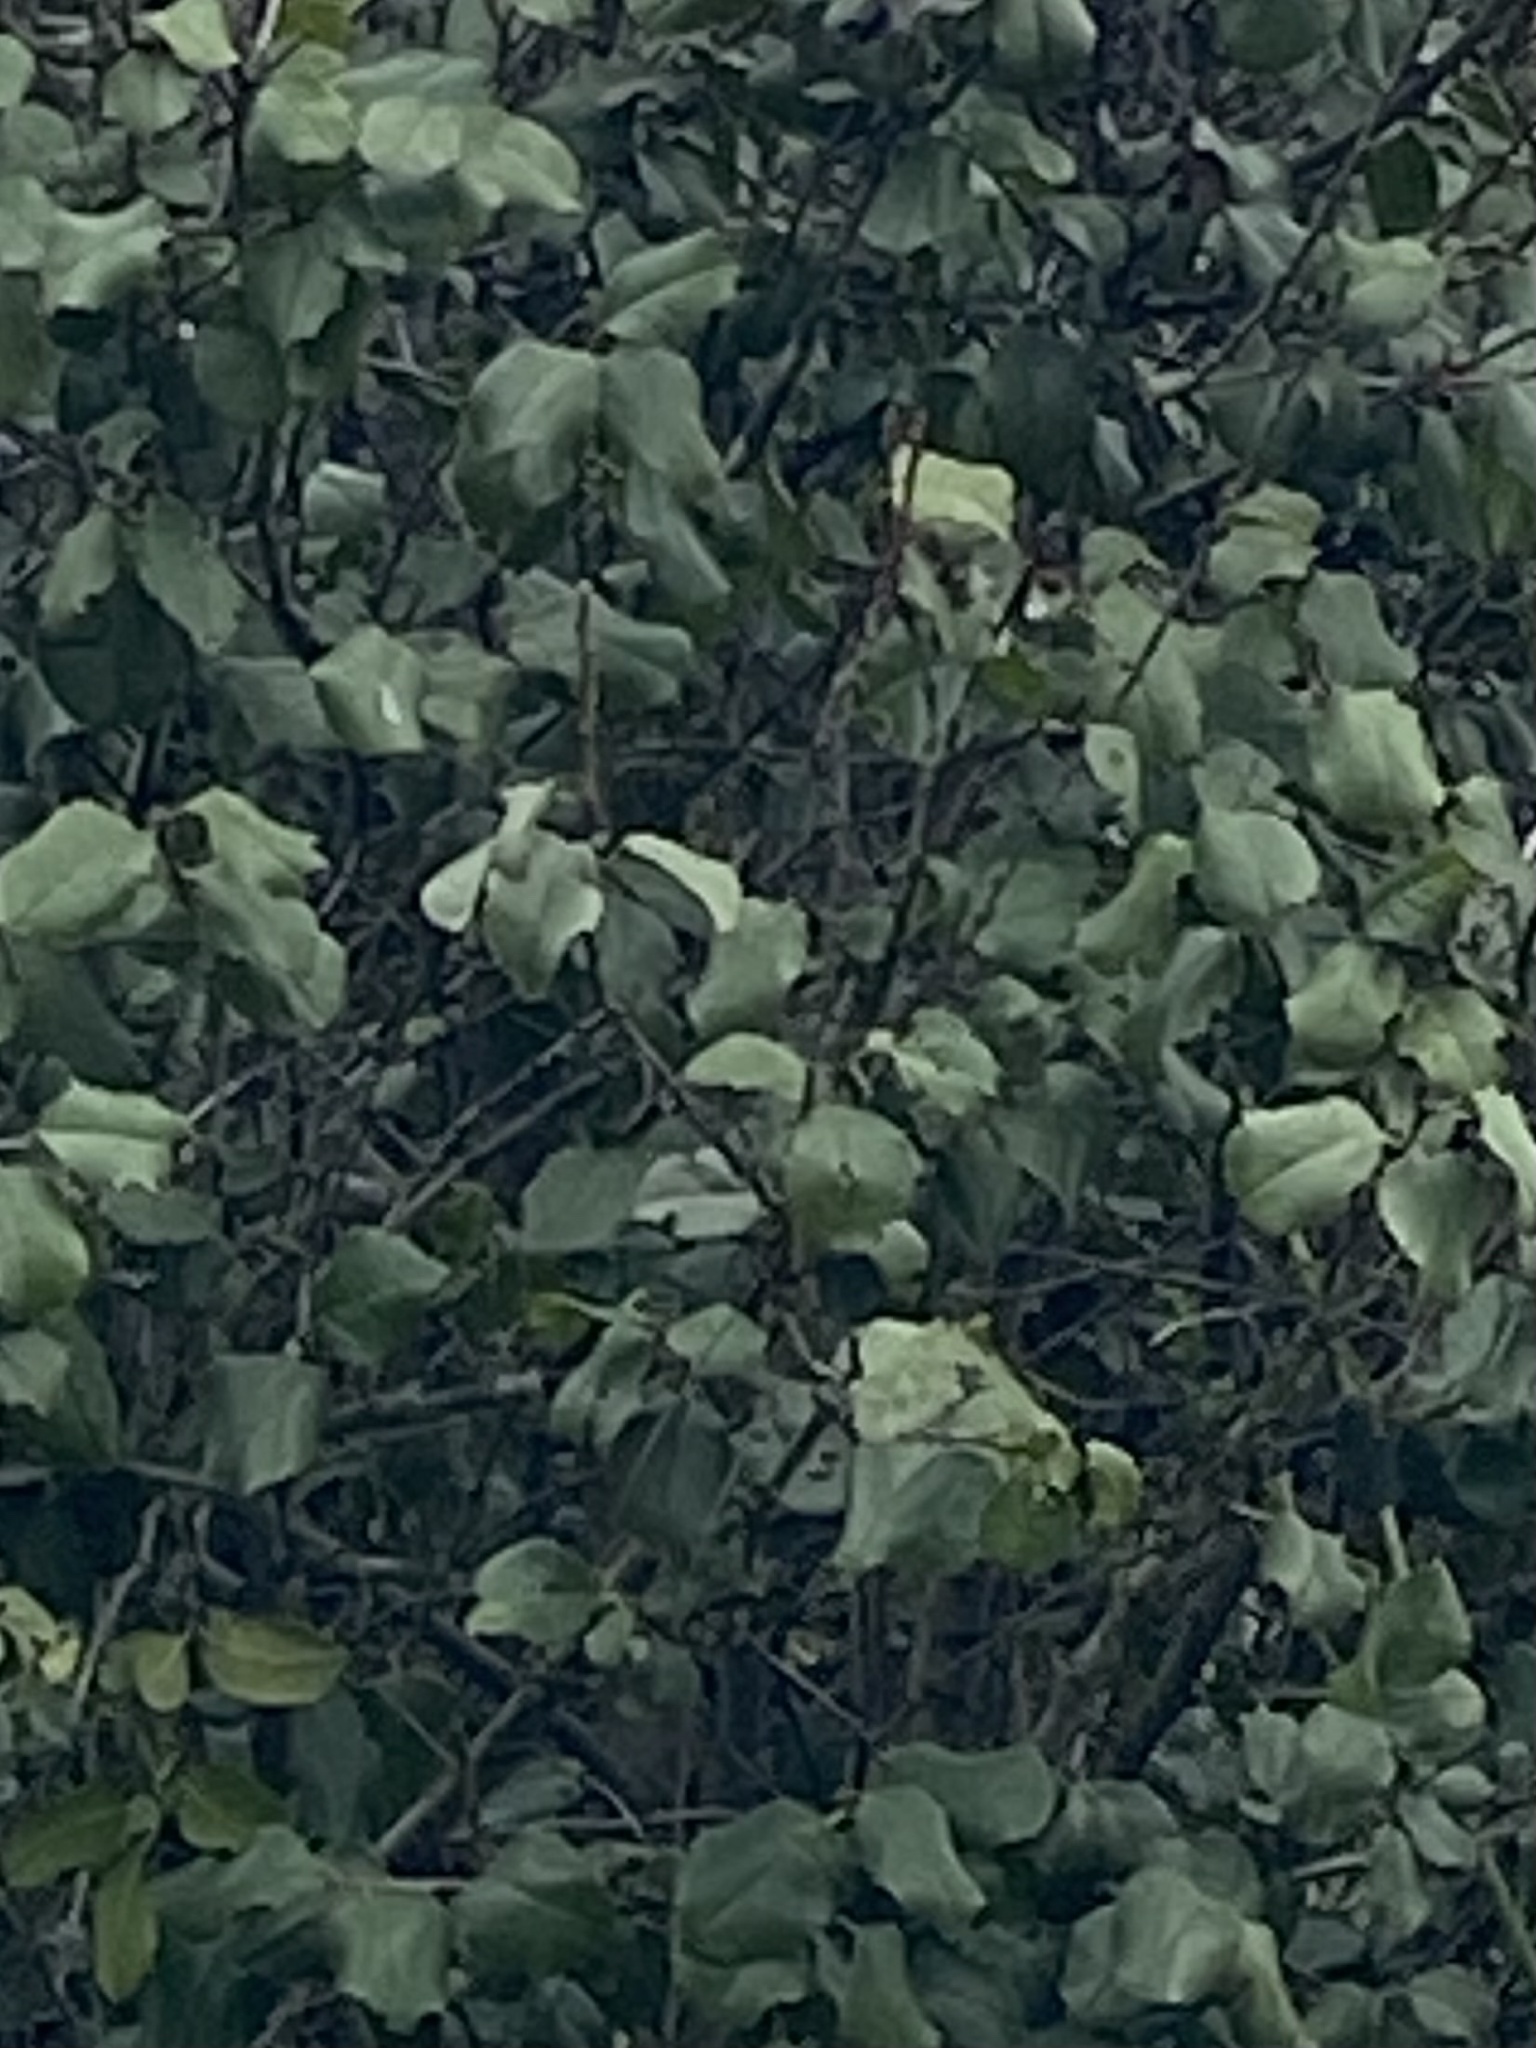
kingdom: Plantae
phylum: Tracheophyta
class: Magnoliopsida
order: Rosales
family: Rosaceae
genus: Prunus
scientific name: Prunus ilicifolia
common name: Hollyleaf cherry
